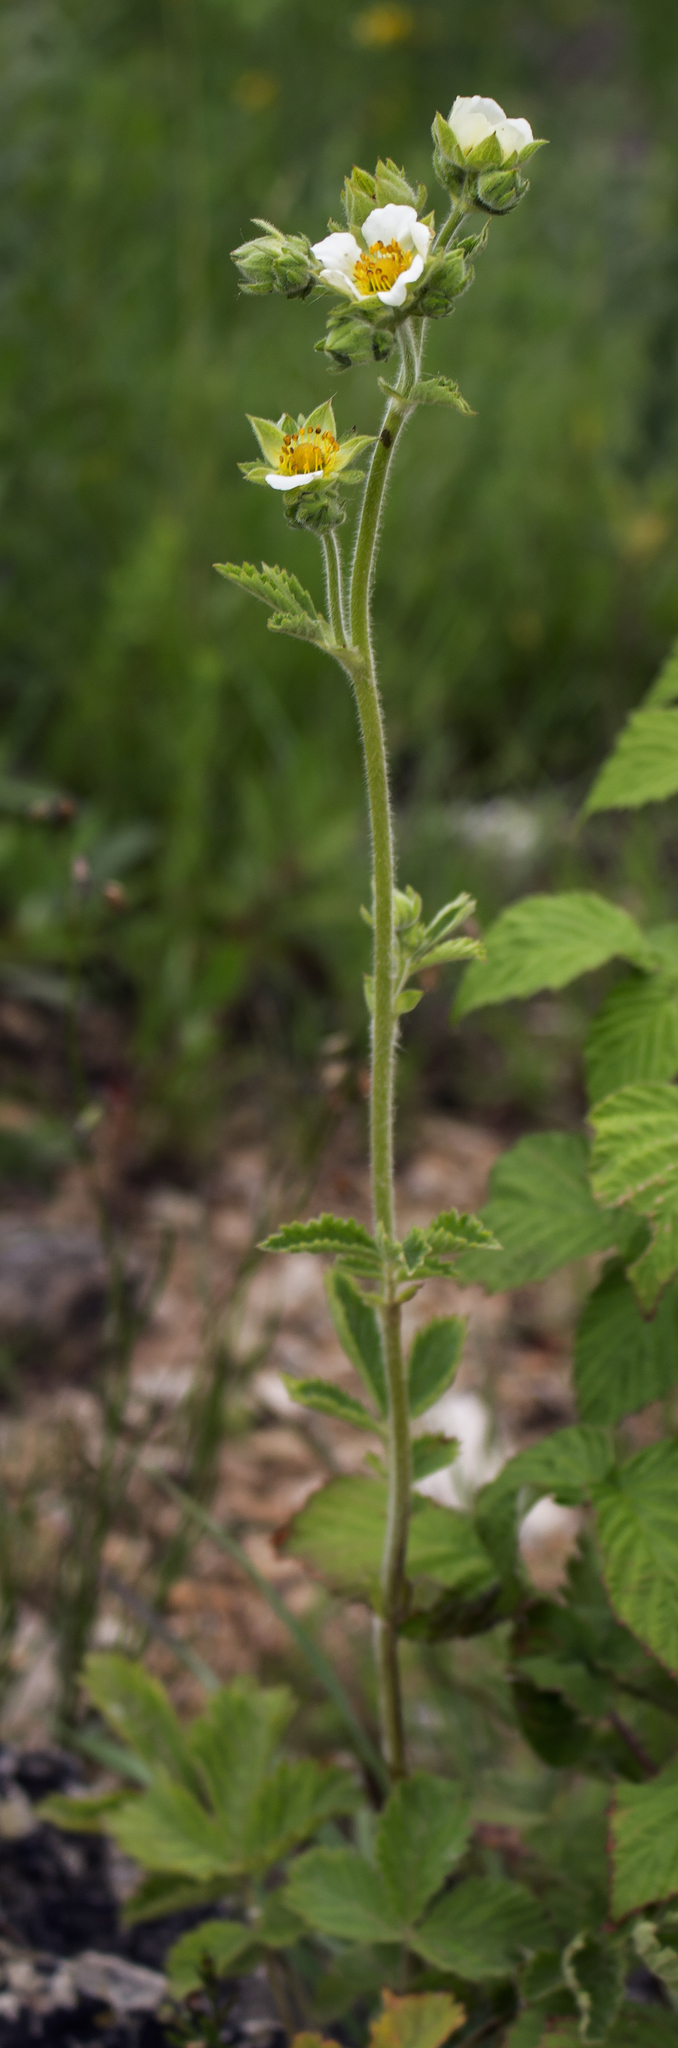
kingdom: Plantae
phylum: Tracheophyta
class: Magnoliopsida
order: Rosales
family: Rosaceae
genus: Drymocallis
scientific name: Drymocallis arguta
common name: Tall cinquefoil
